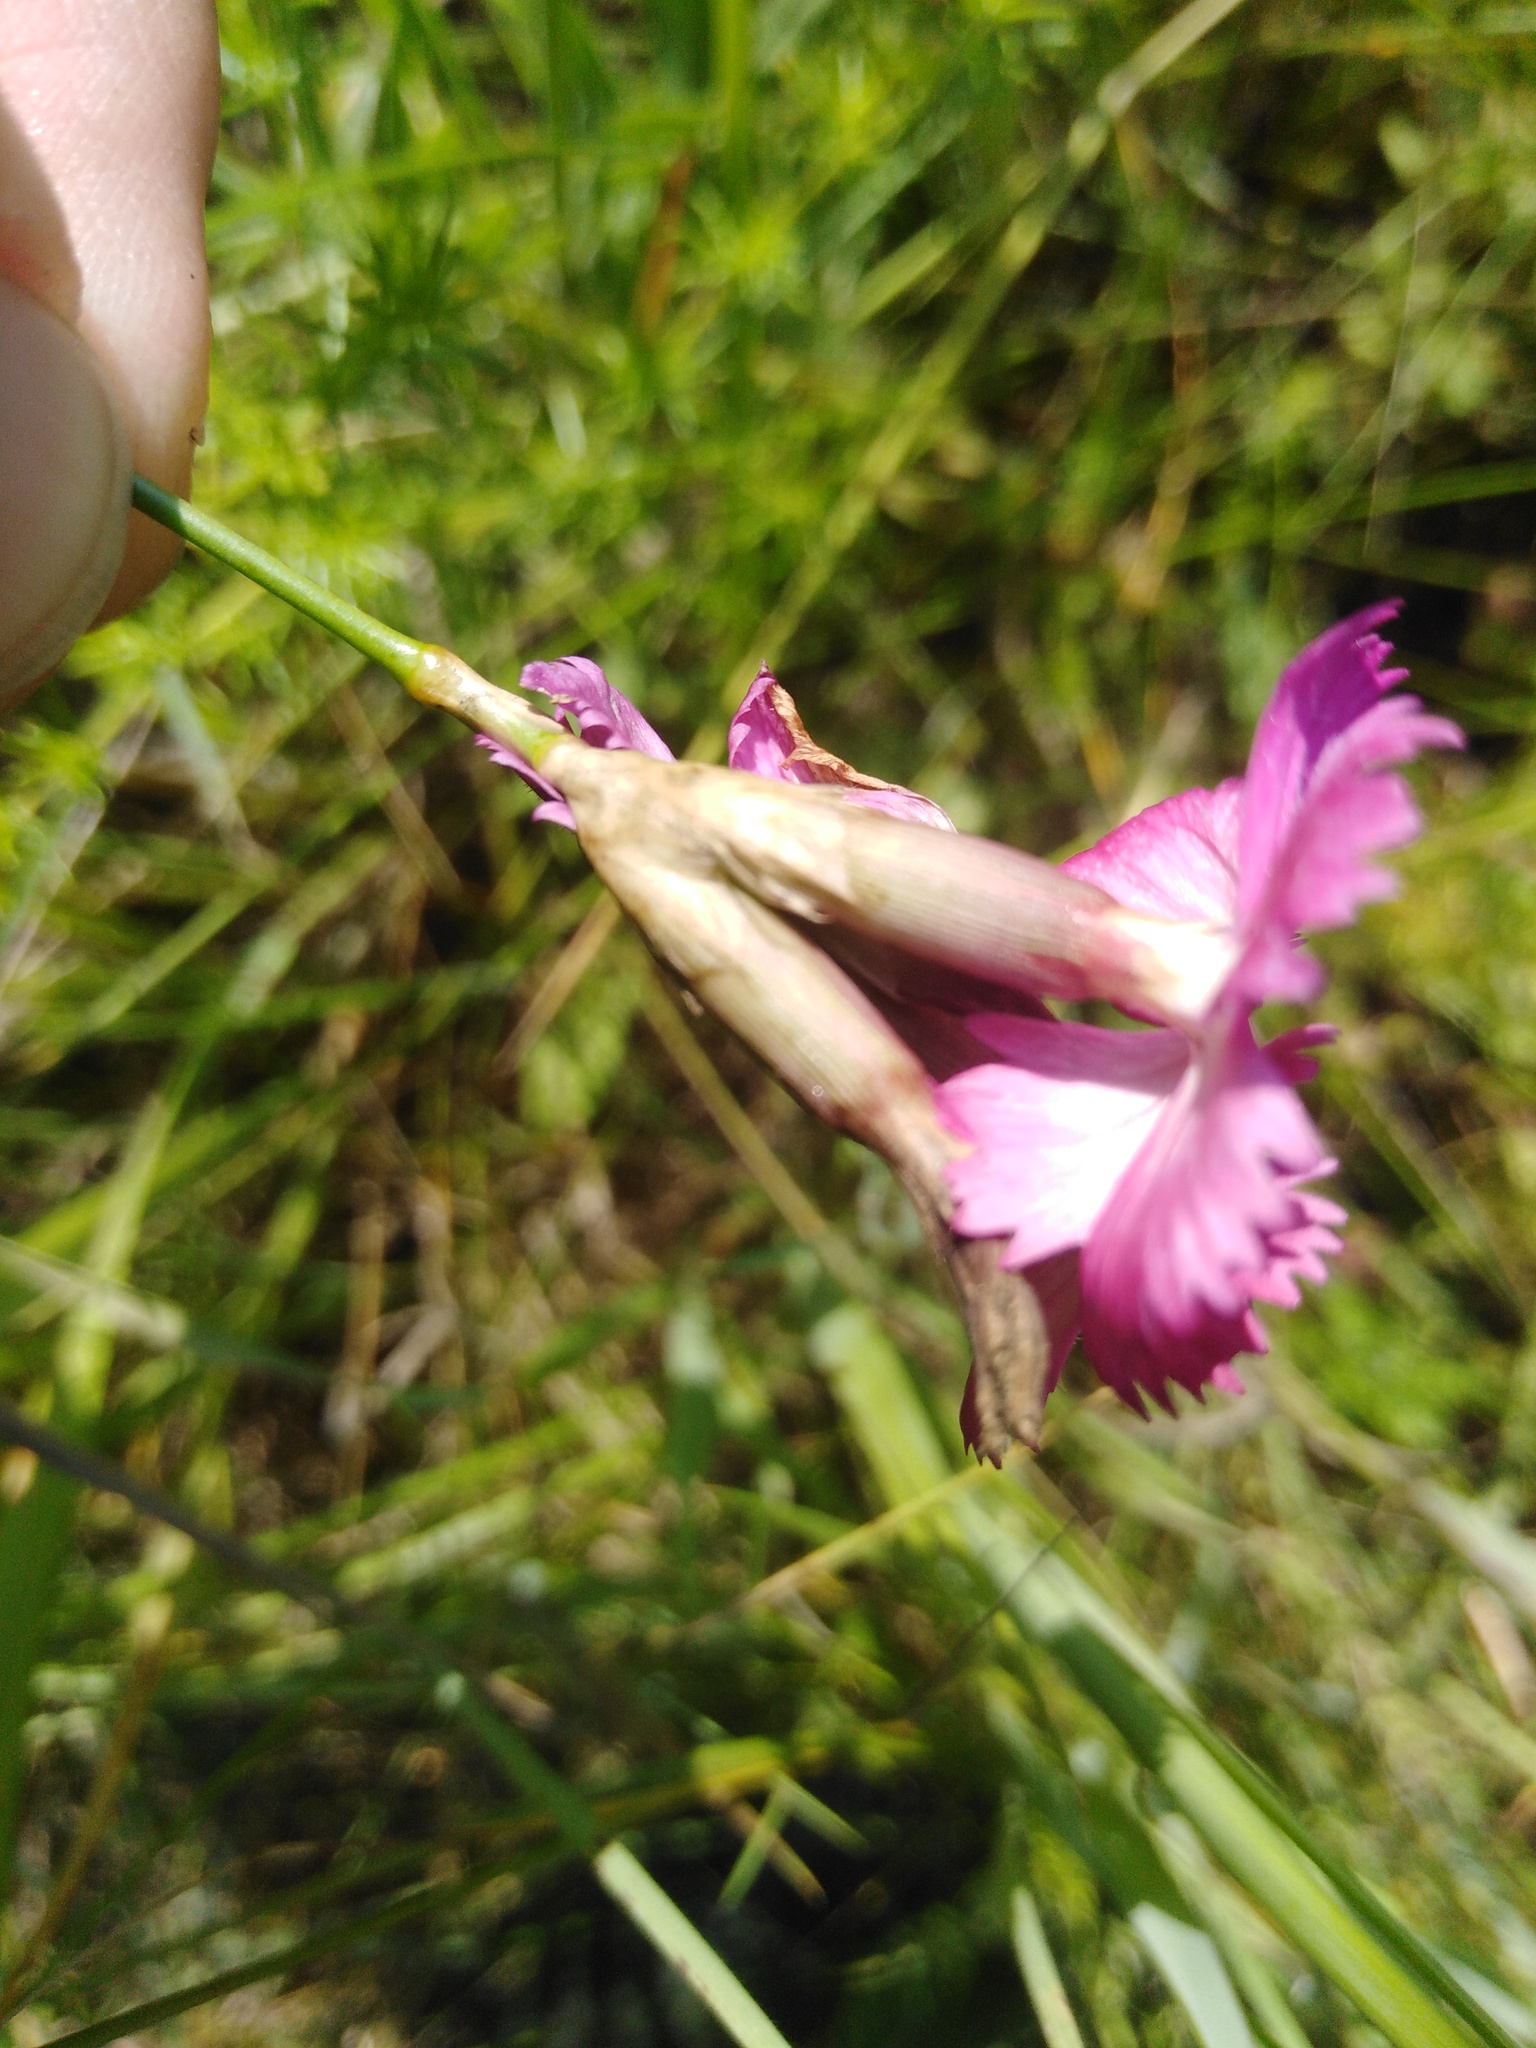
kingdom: Plantae
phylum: Tracheophyta
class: Magnoliopsida
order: Caryophyllales
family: Caryophyllaceae
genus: Dianthus
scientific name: Dianthus borbasii
